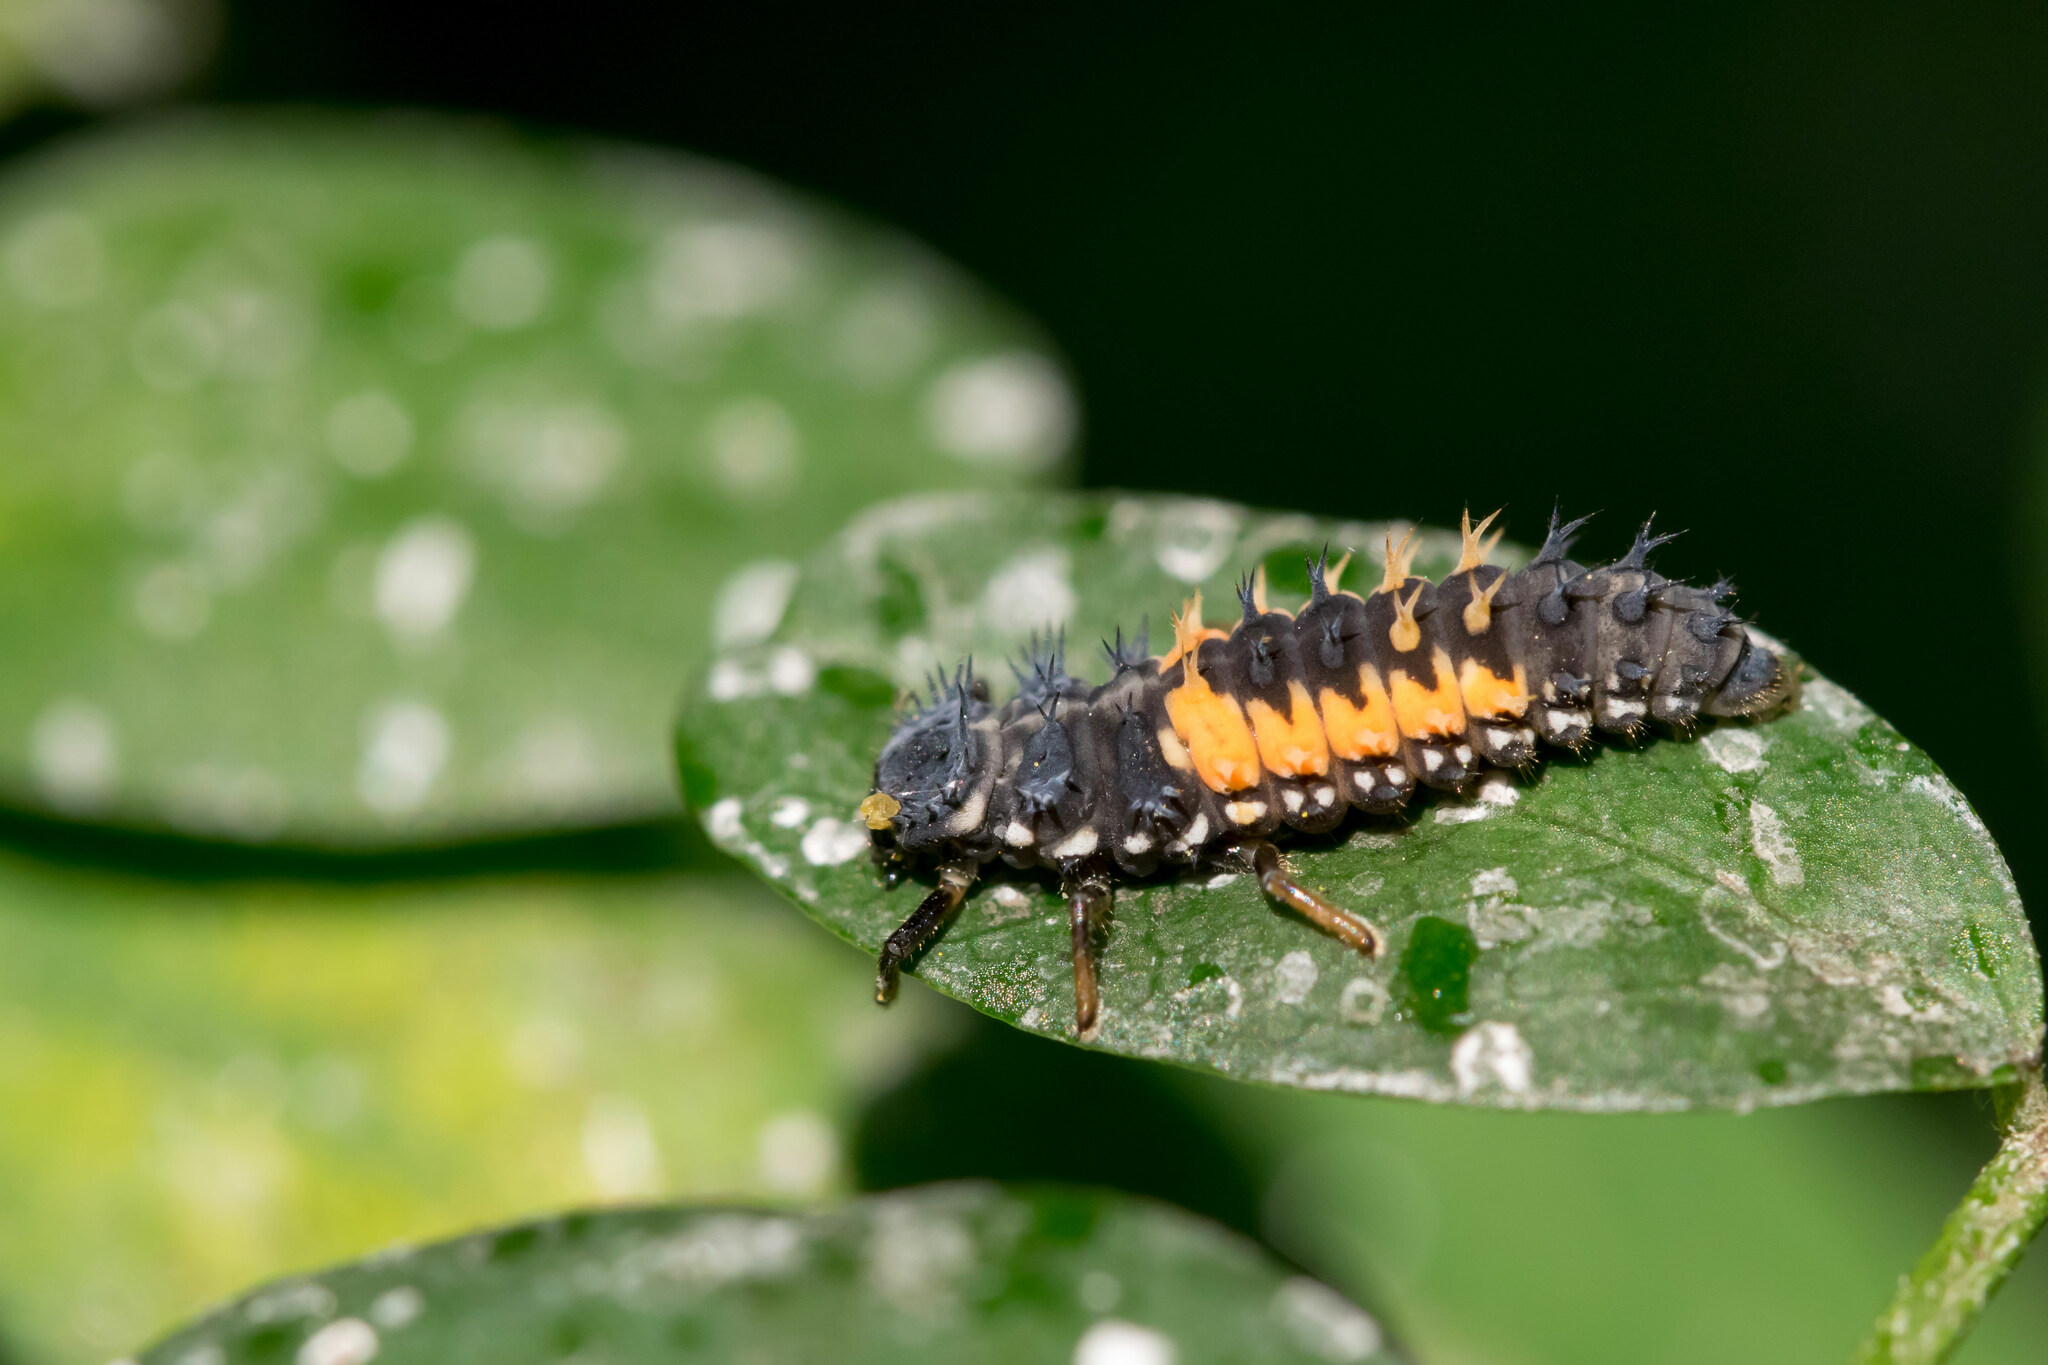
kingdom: Animalia
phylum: Arthropoda
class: Insecta
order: Coleoptera
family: Coccinellidae
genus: Harmonia
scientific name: Harmonia axyridis
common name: Harlequin ladybird
